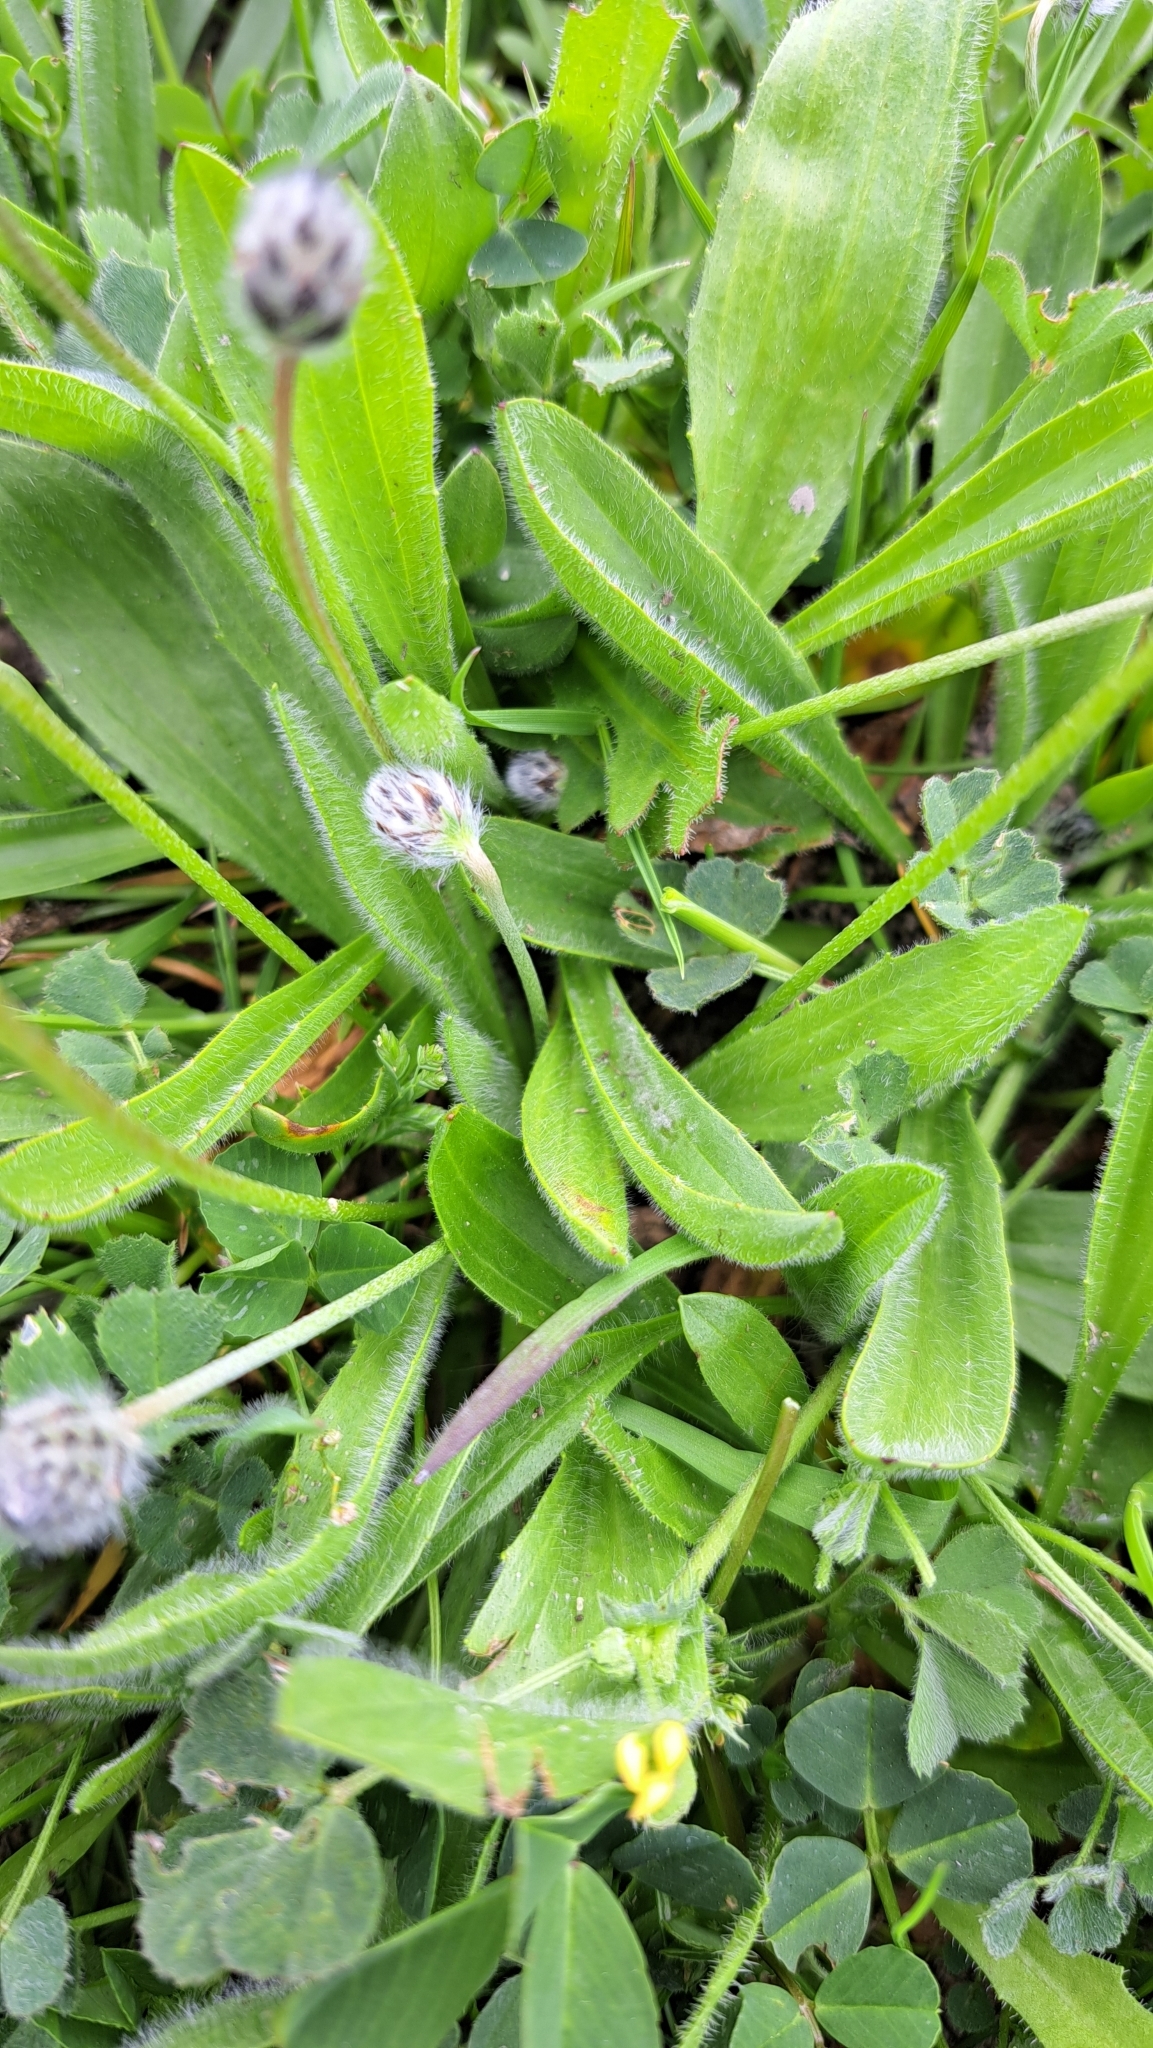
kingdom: Plantae
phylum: Tracheophyta
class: Magnoliopsida
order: Lamiales
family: Plantaginaceae
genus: Plantago
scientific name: Plantago lagopus
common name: Hare-foot plantain
